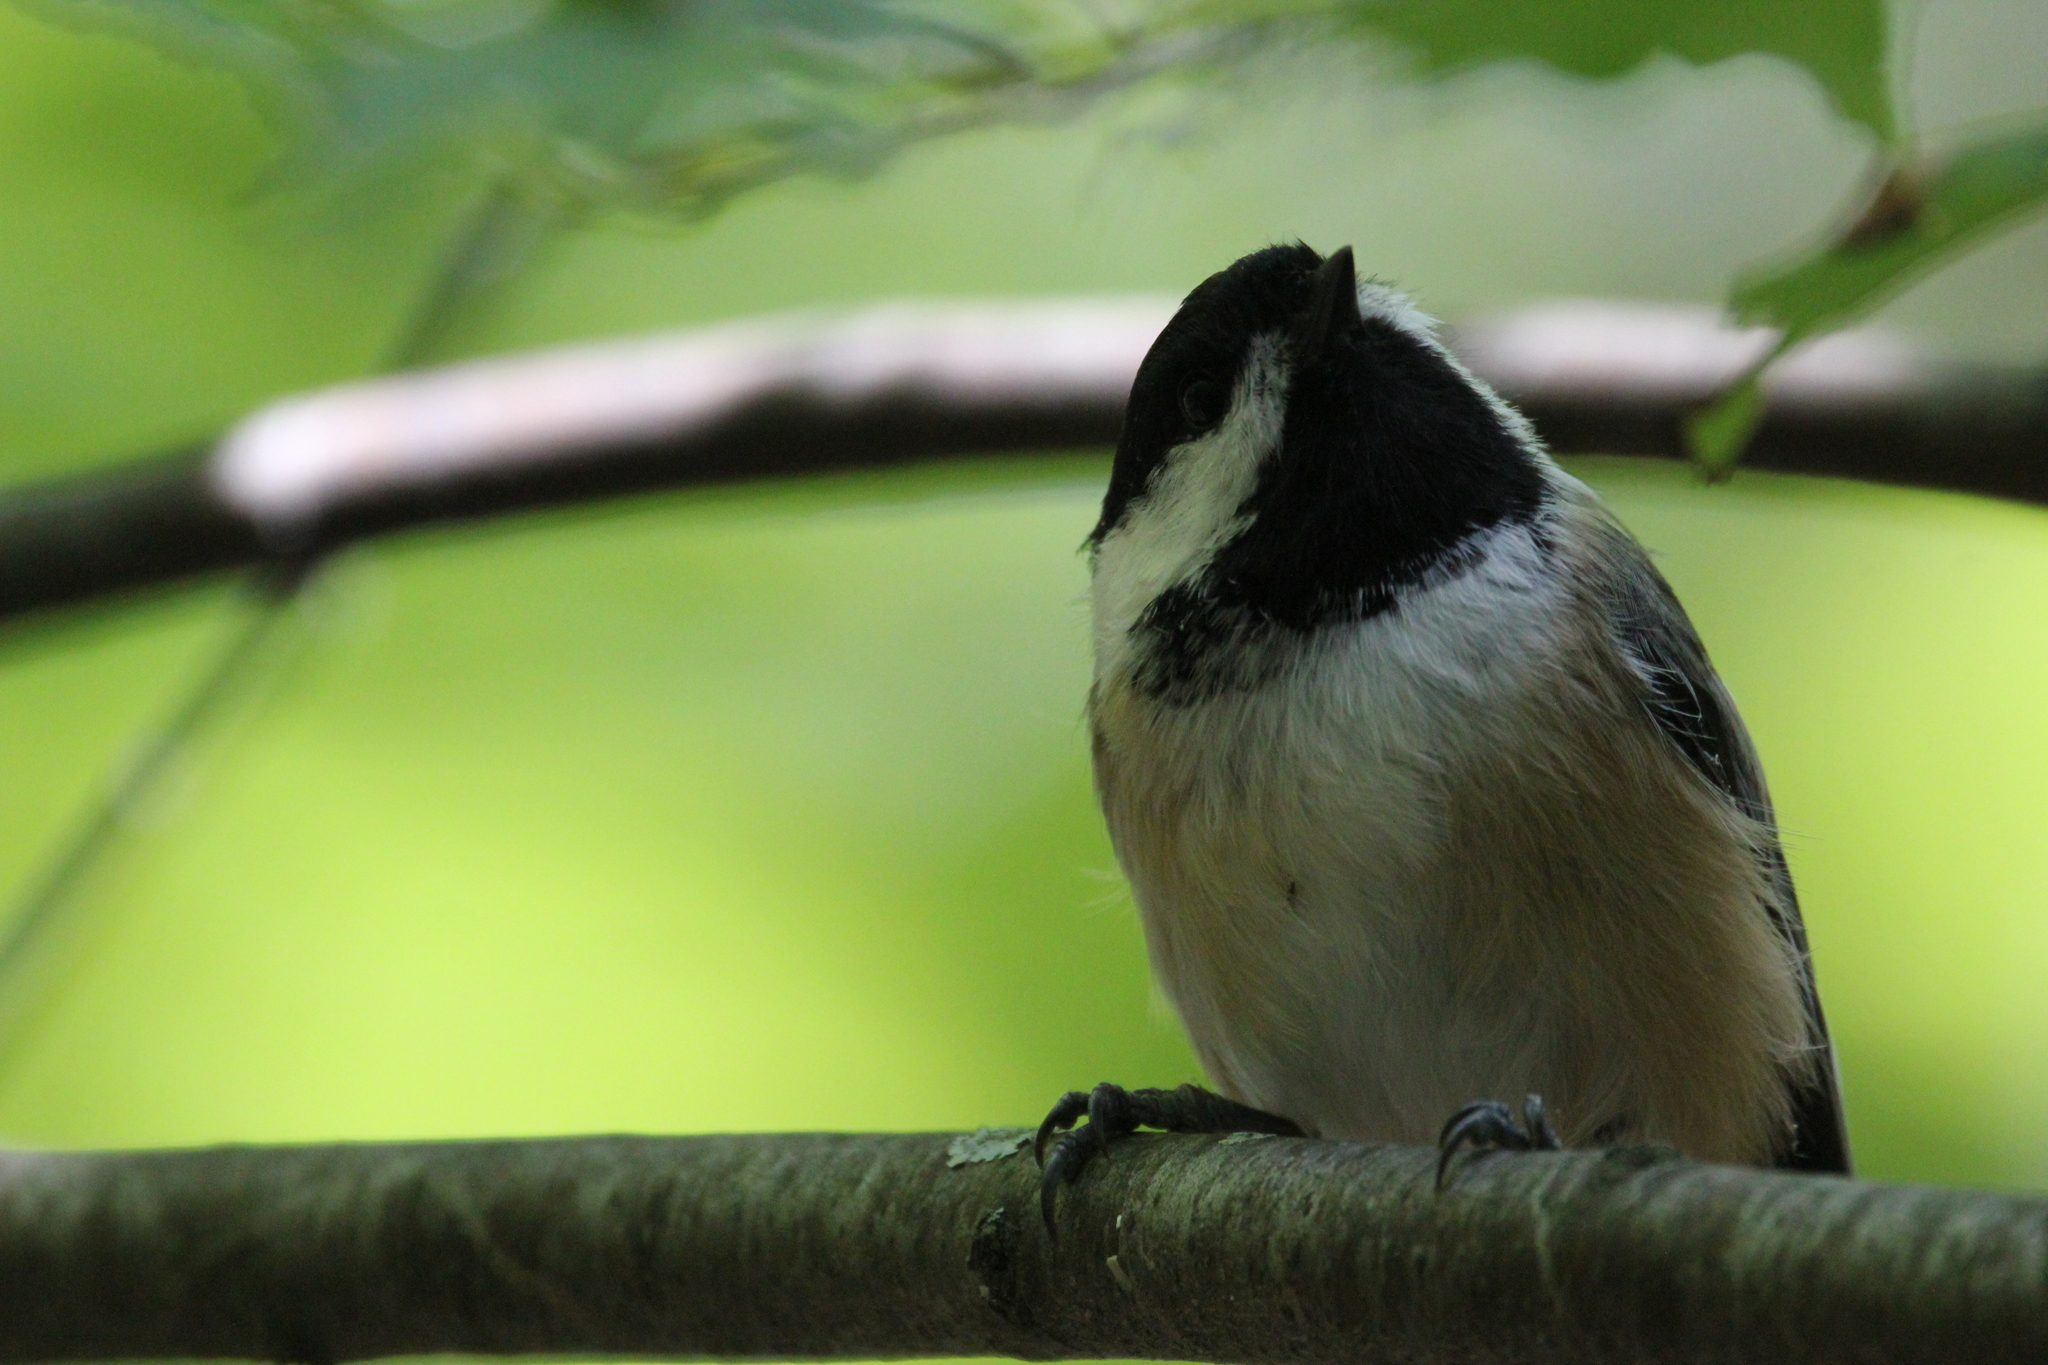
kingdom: Animalia
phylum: Chordata
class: Aves
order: Passeriformes
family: Paridae
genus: Poecile
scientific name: Poecile atricapillus
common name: Black-capped chickadee
